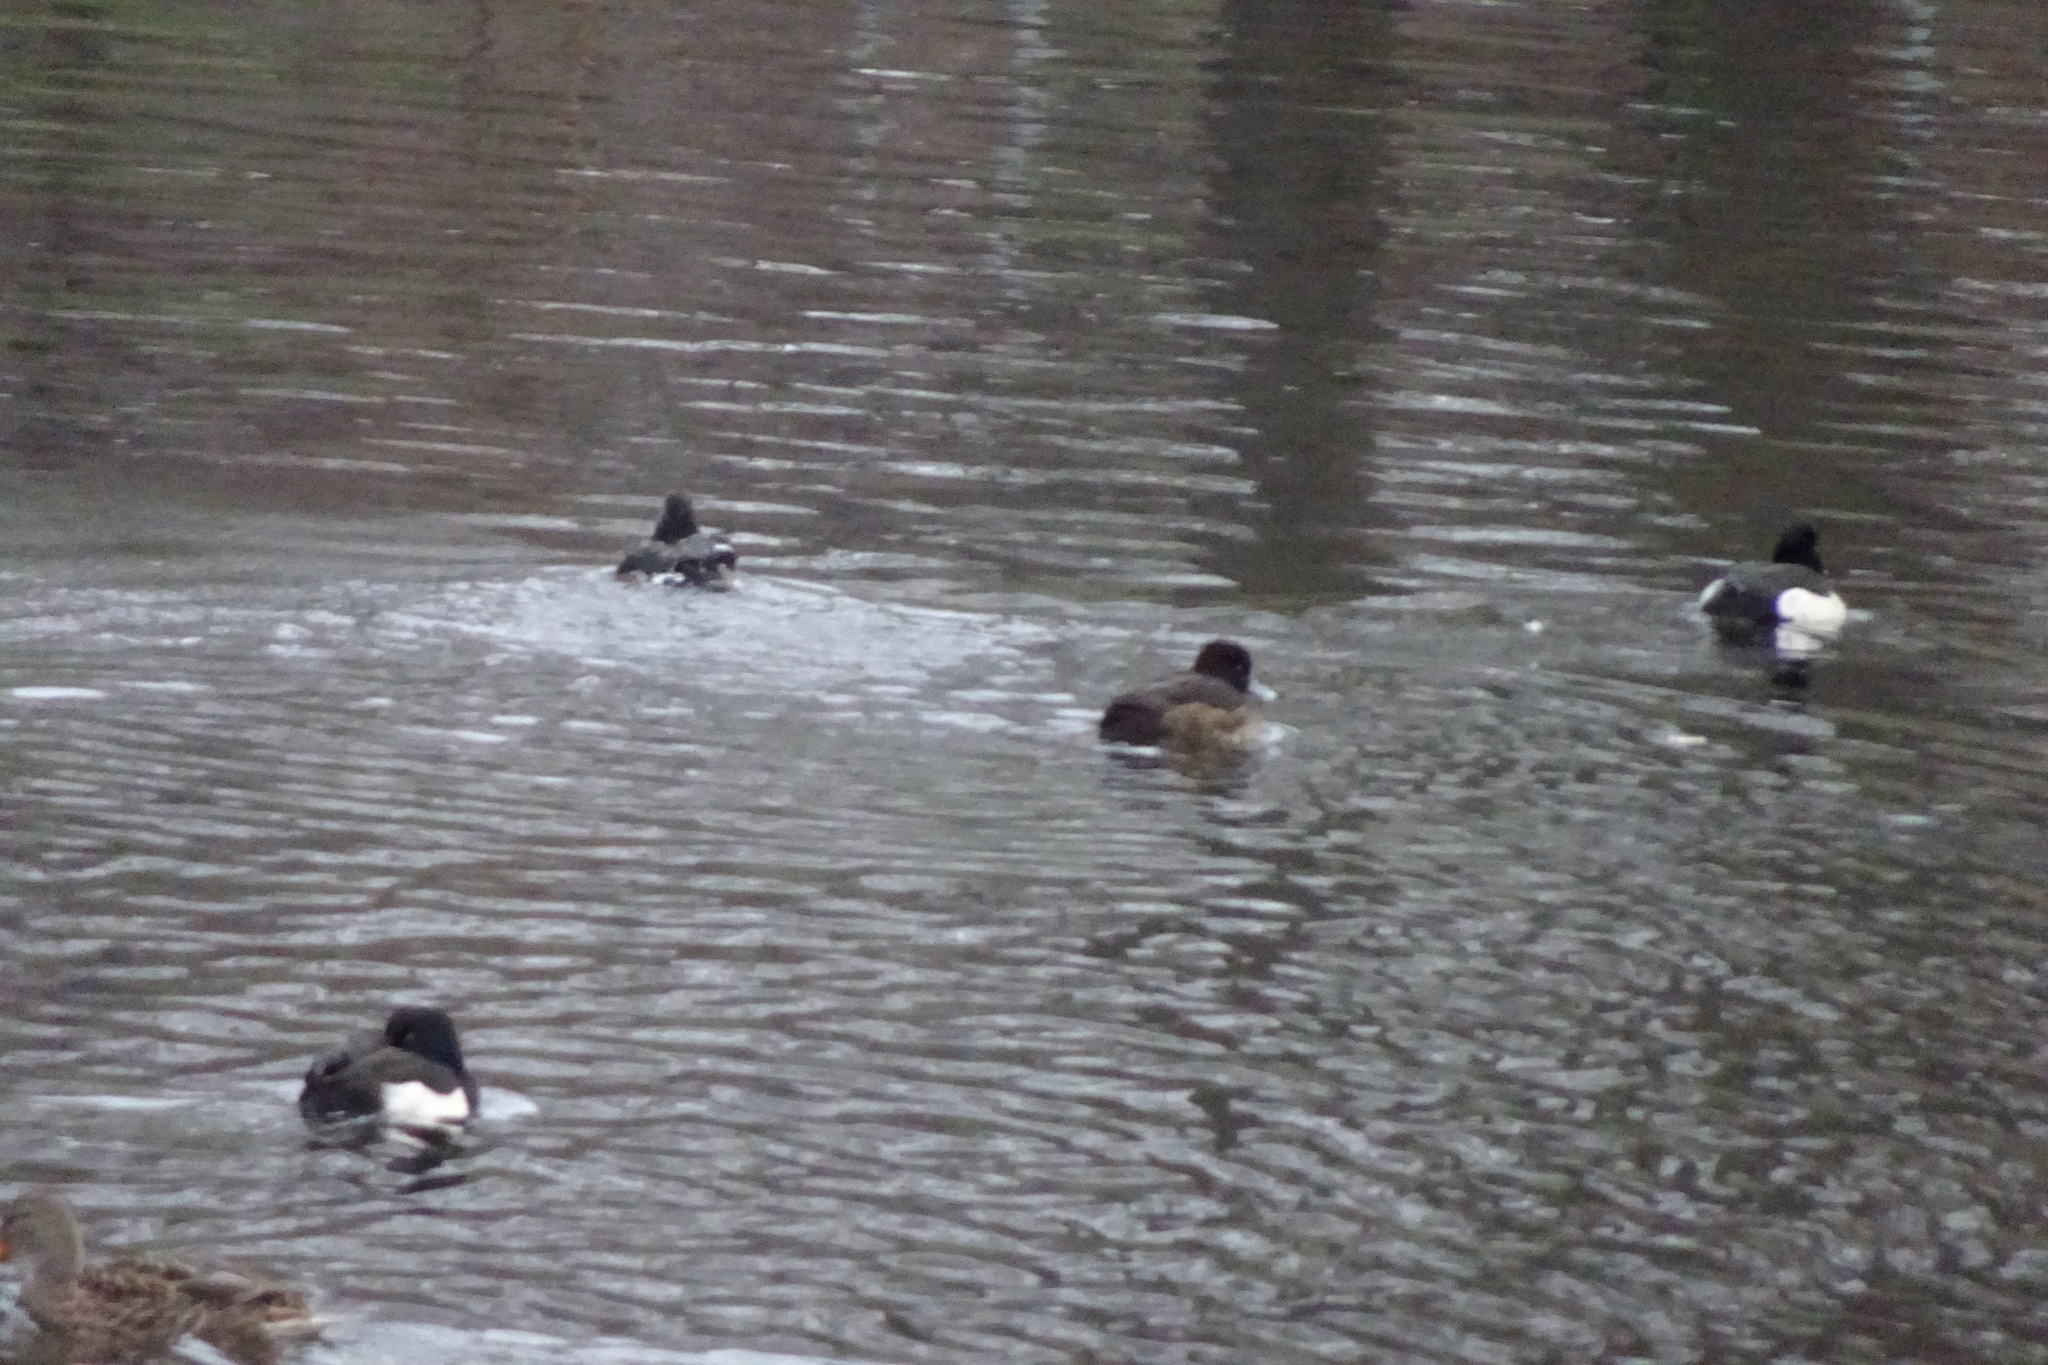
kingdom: Animalia
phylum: Chordata
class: Aves
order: Anseriformes
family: Anatidae
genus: Aythya
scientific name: Aythya fuligula
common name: Tufted duck
